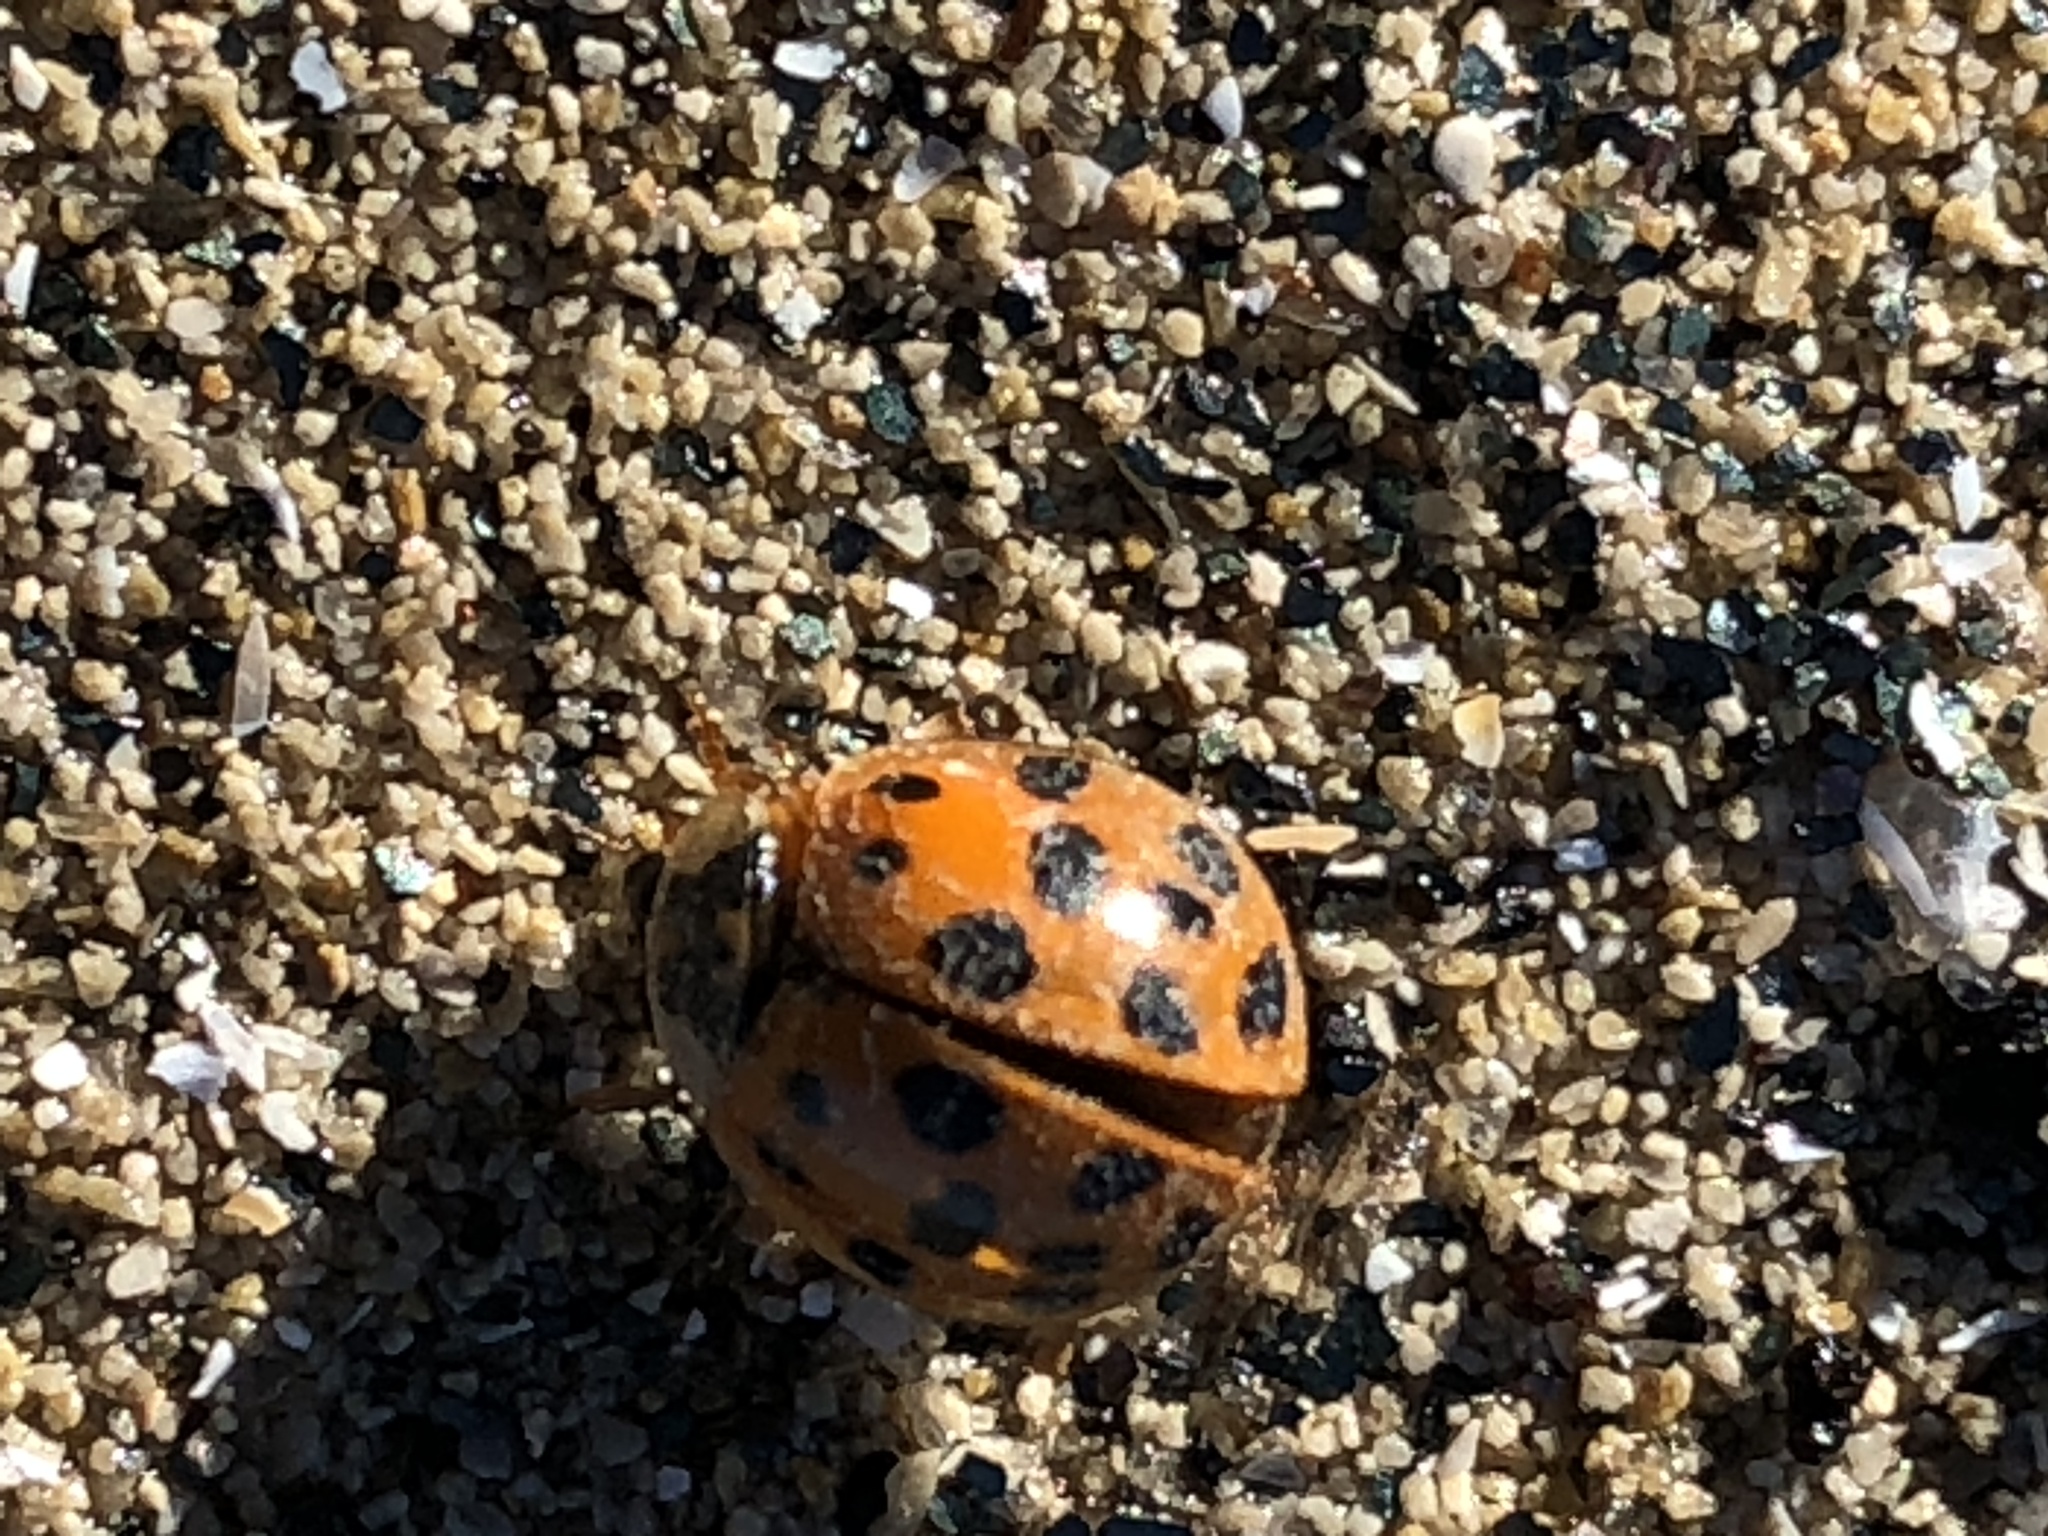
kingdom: Animalia
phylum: Arthropoda
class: Insecta
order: Coleoptera
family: Coccinellidae
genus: Harmonia
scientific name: Harmonia axyridis
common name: Harlequin ladybird
